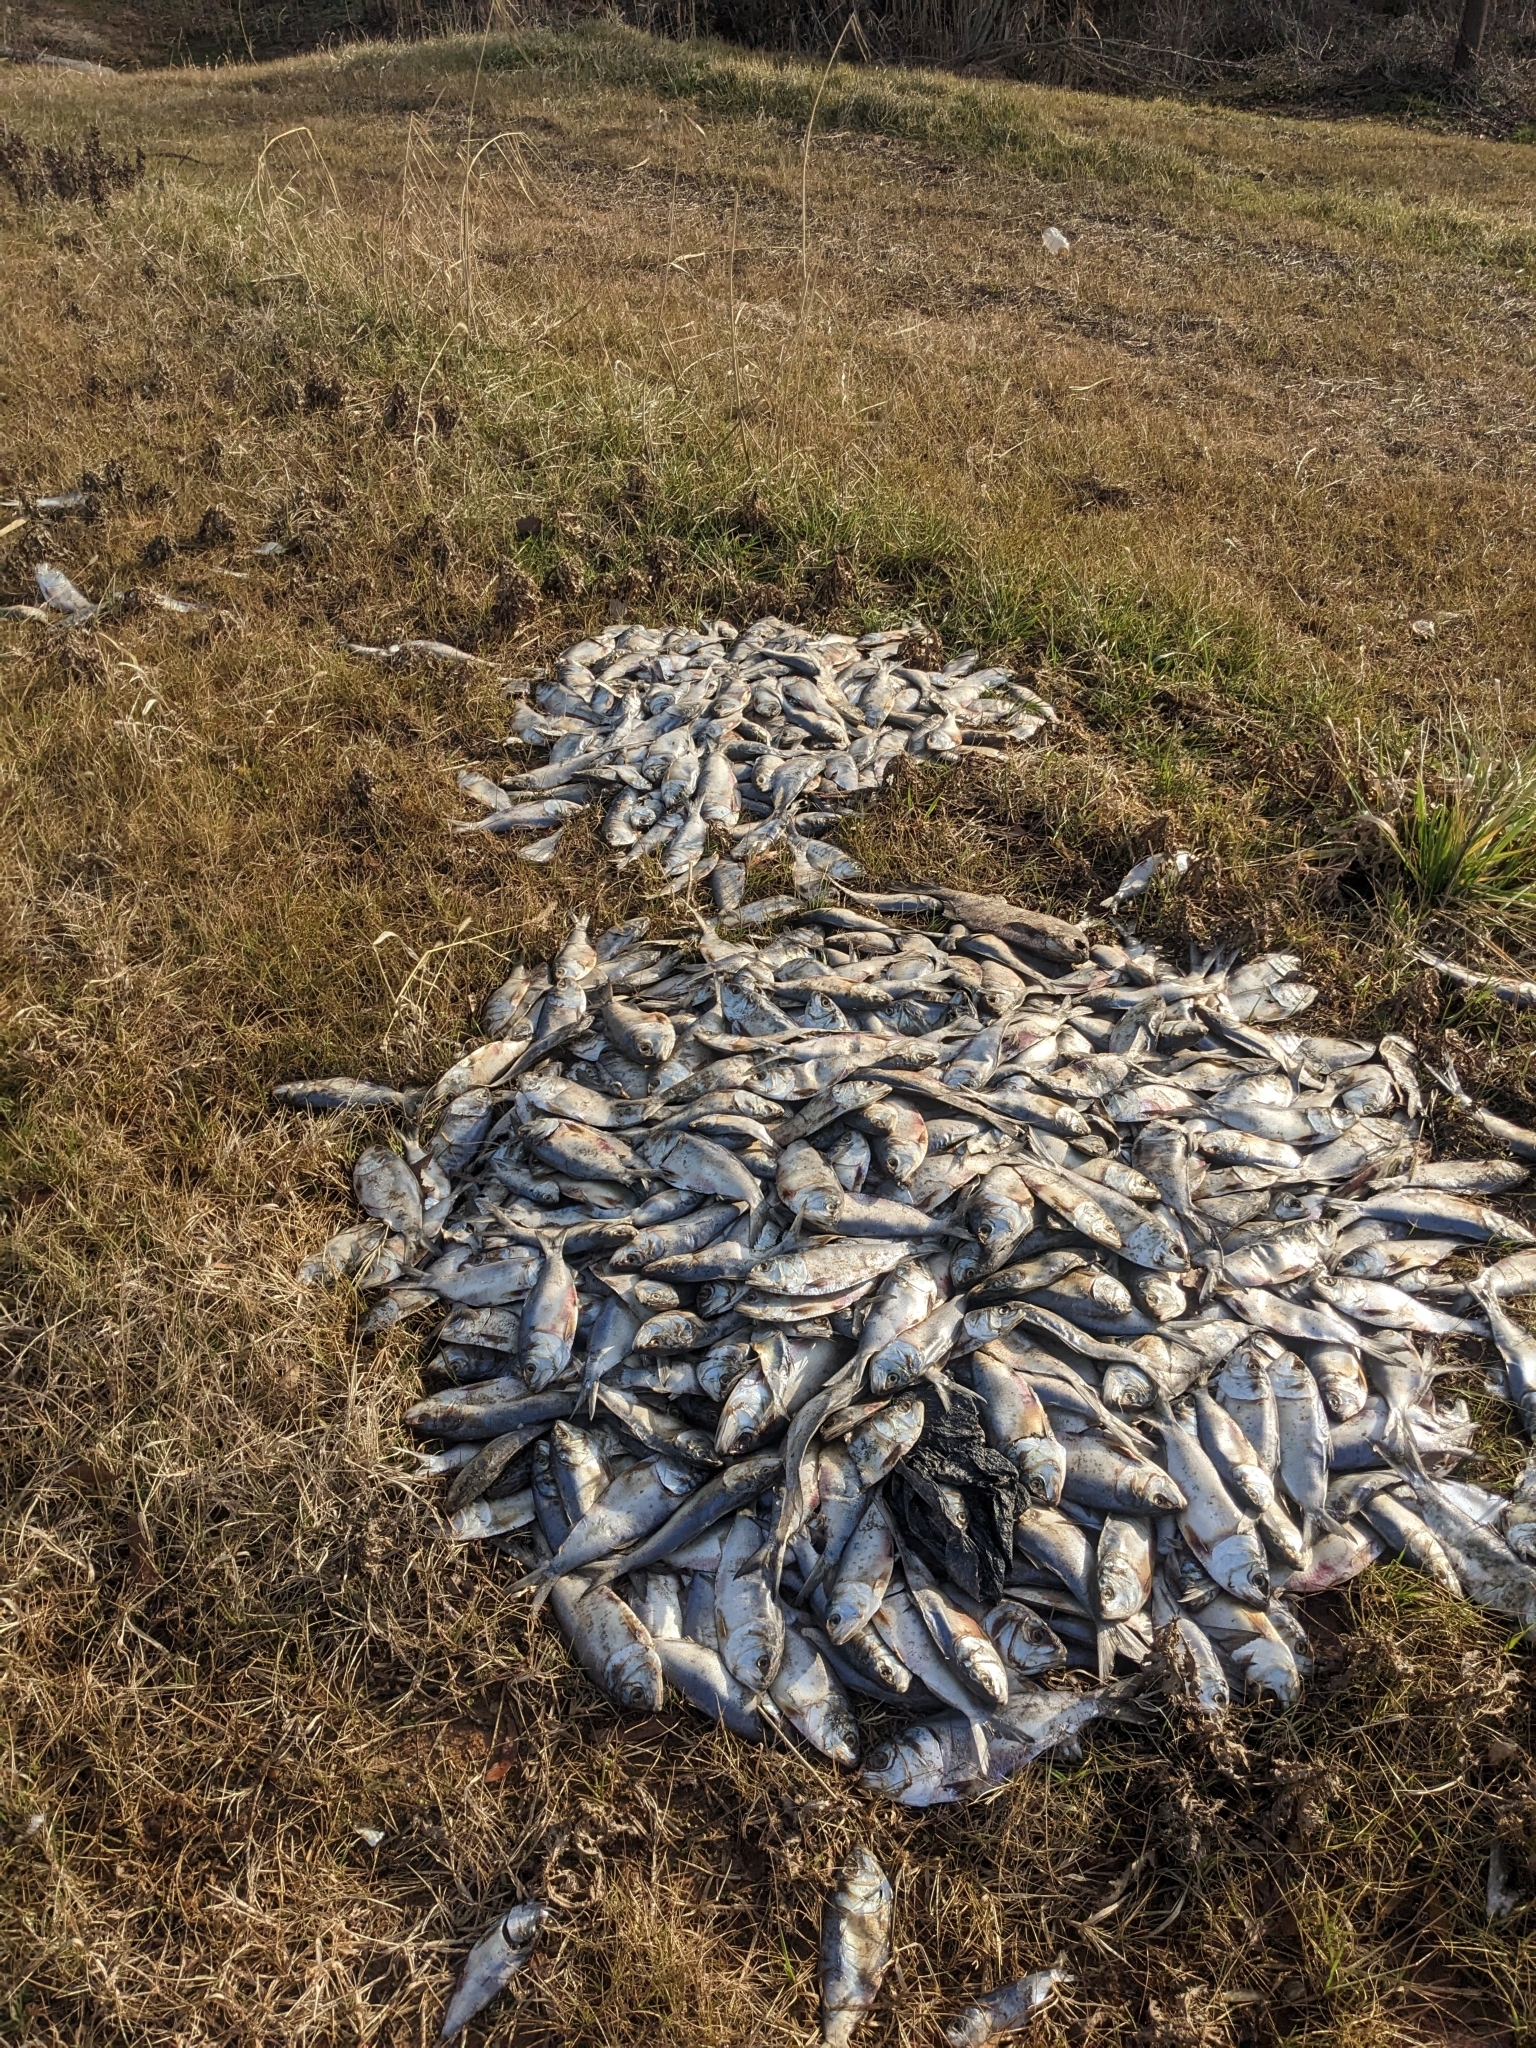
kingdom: Animalia
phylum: Chordata
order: Clupeiformes
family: Clupeidae
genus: Brevoortia
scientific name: Brevoortia tyrannus
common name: Atlantic menhaden
